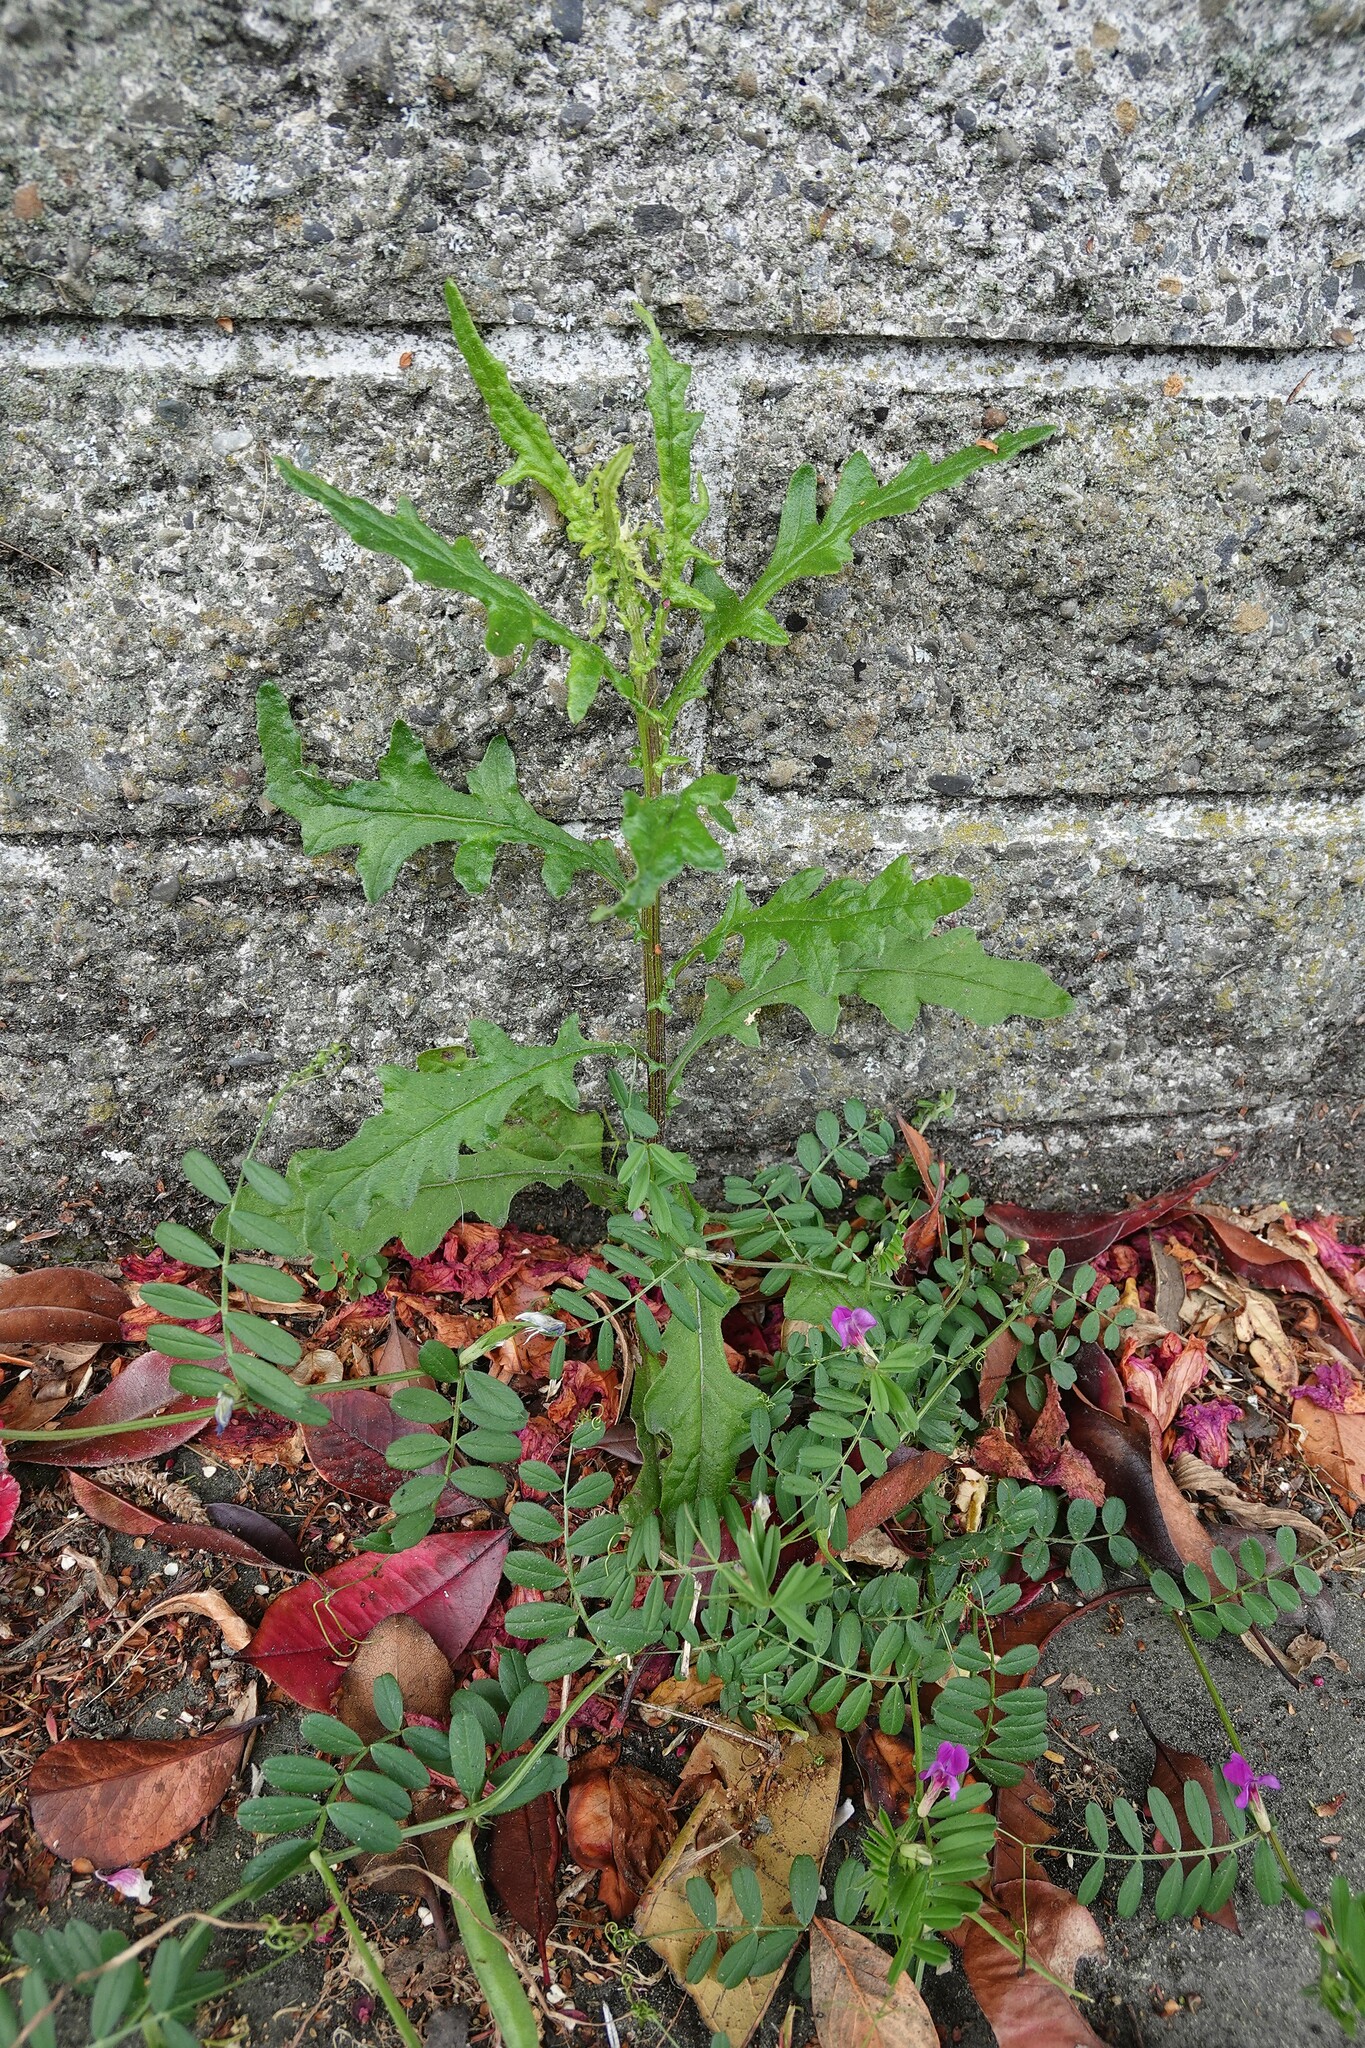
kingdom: Plantae
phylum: Tracheophyta
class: Magnoliopsida
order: Asterales
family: Asteraceae
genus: Senecio
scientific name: Senecio hispidulus
